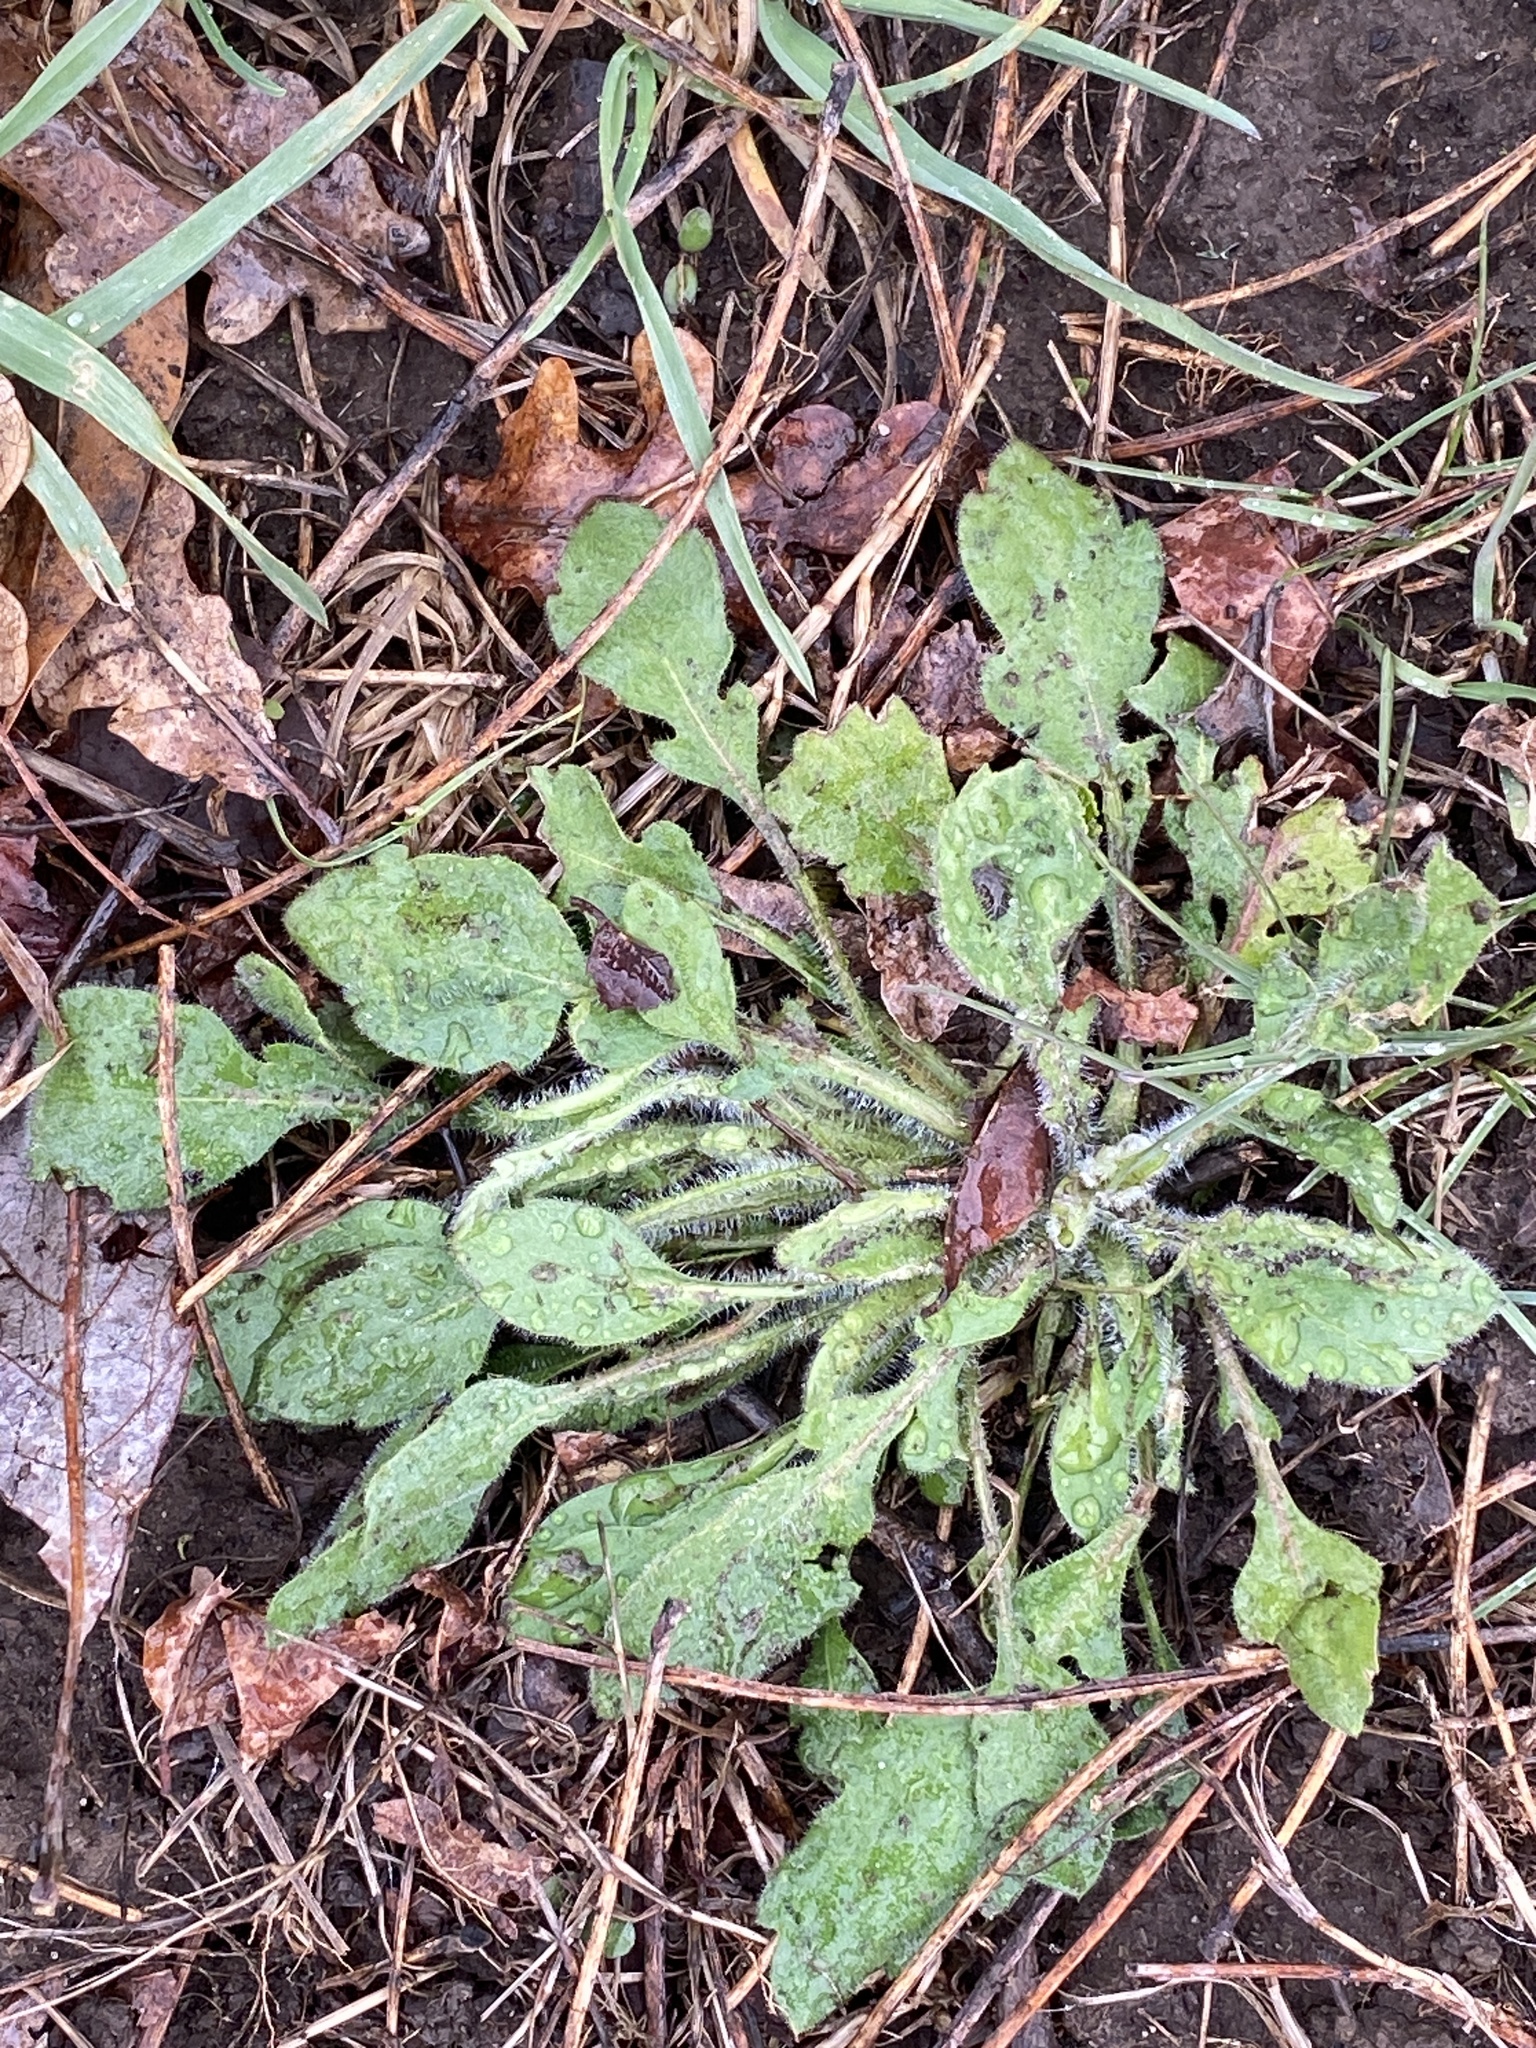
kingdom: Plantae
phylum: Tracheophyta
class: Magnoliopsida
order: Asterales
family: Asteraceae
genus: Erigeron
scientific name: Erigeron canadensis
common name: Canadian fleabane
